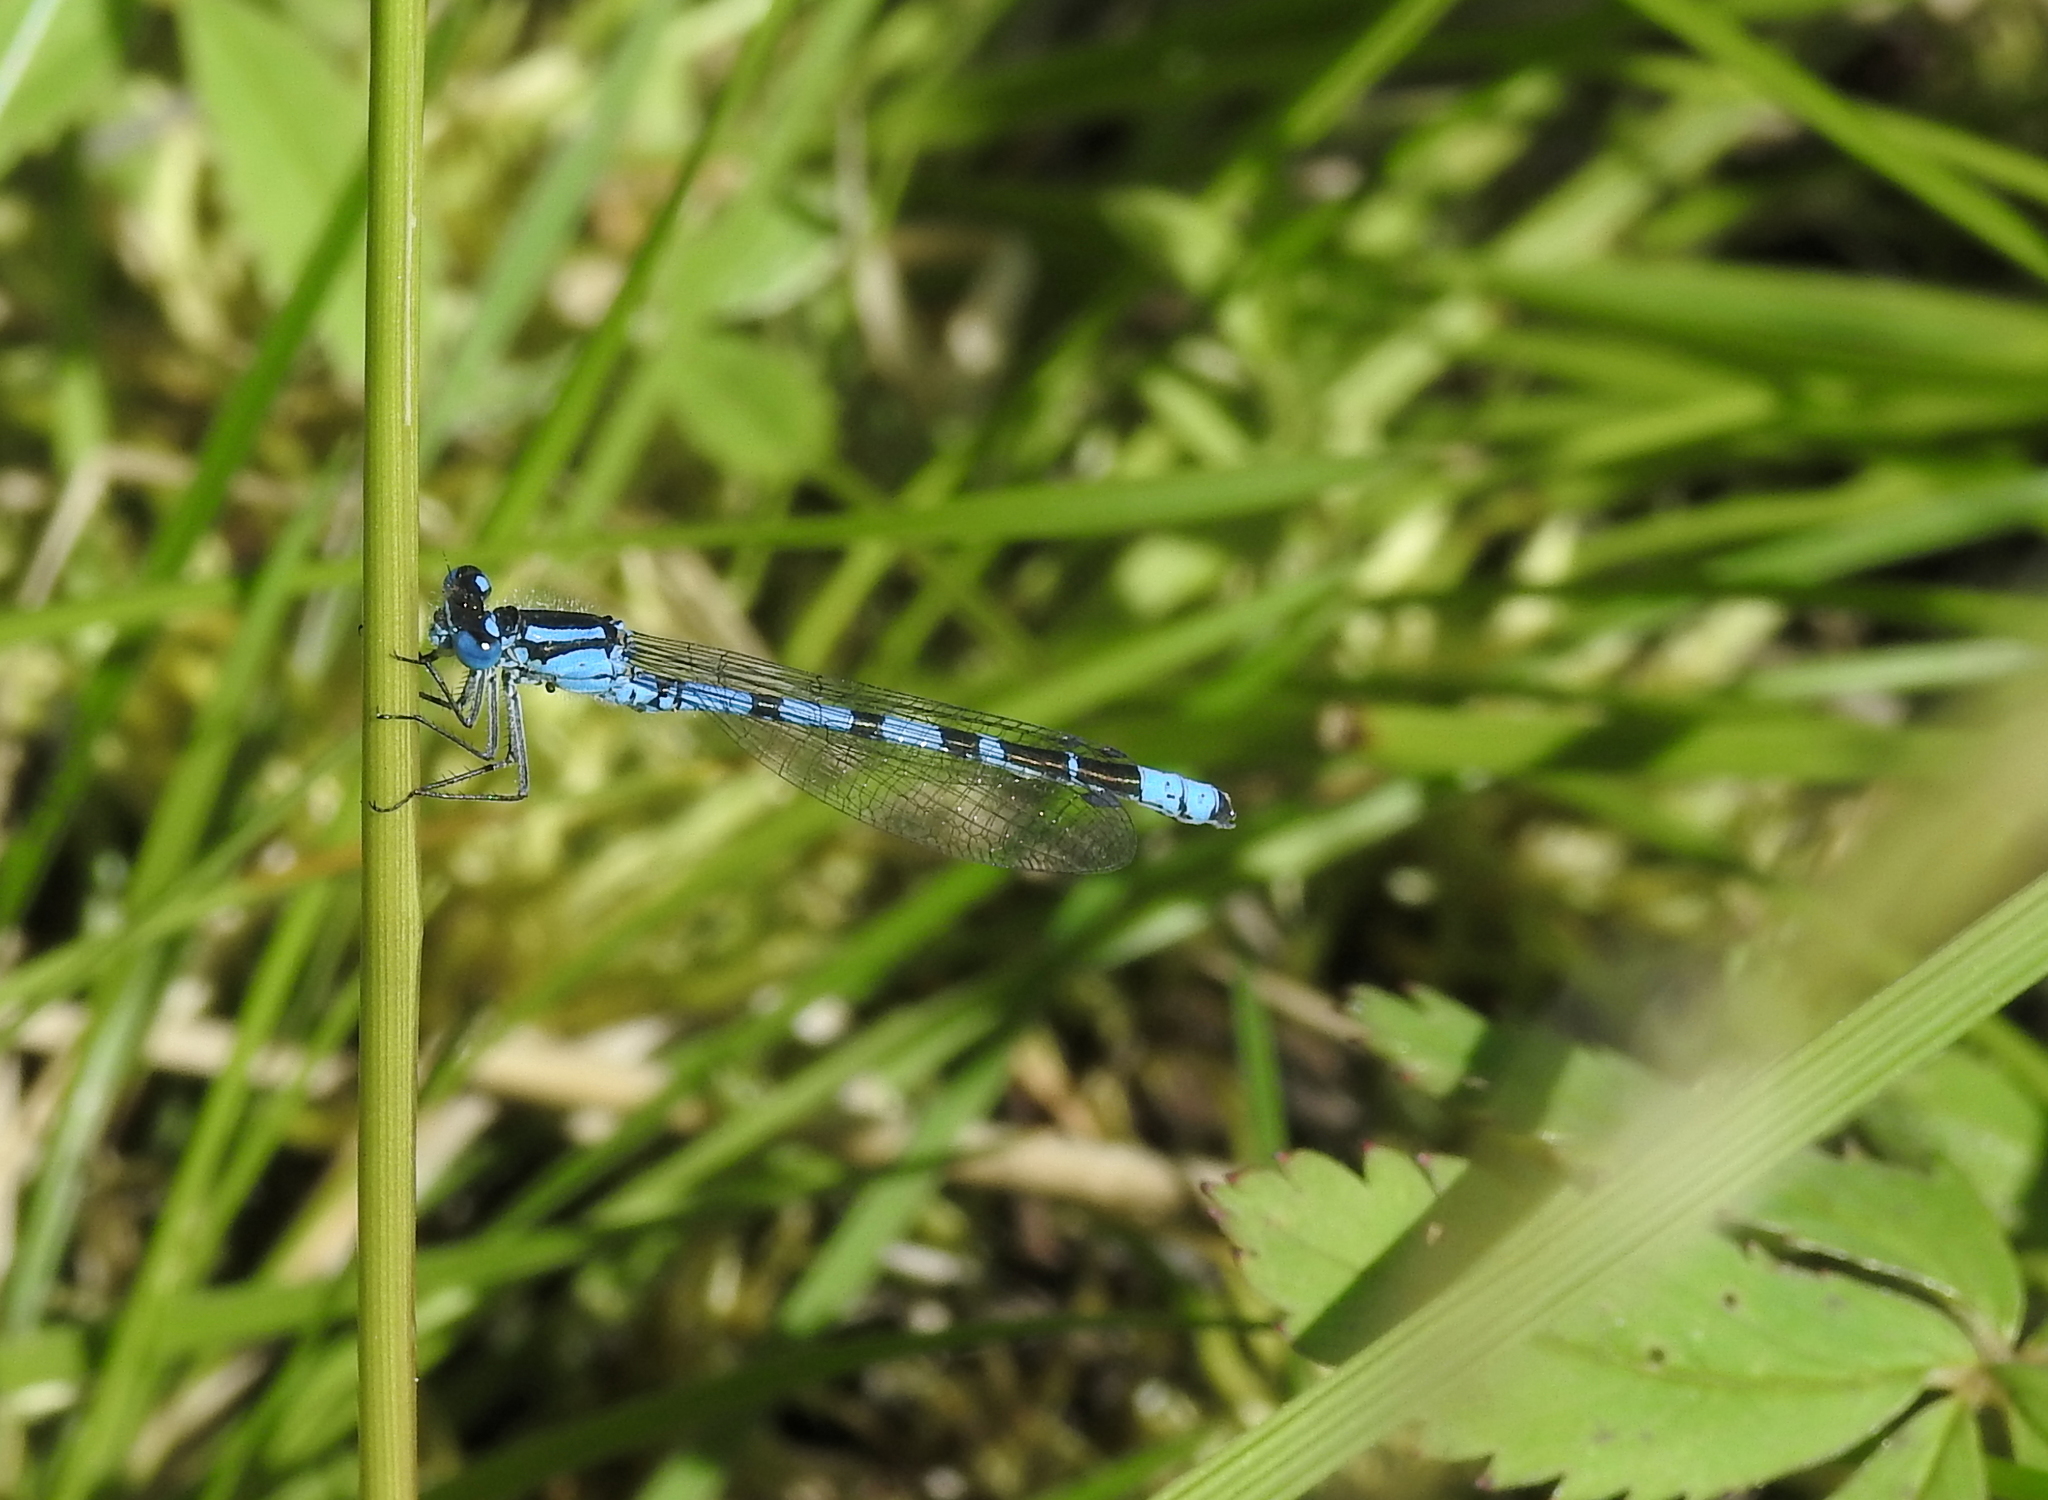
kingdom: Animalia
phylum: Arthropoda
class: Insecta
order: Odonata
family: Coenagrionidae
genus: Enallagma
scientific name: Enallagma cyathigerum
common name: Common blue damselfly
